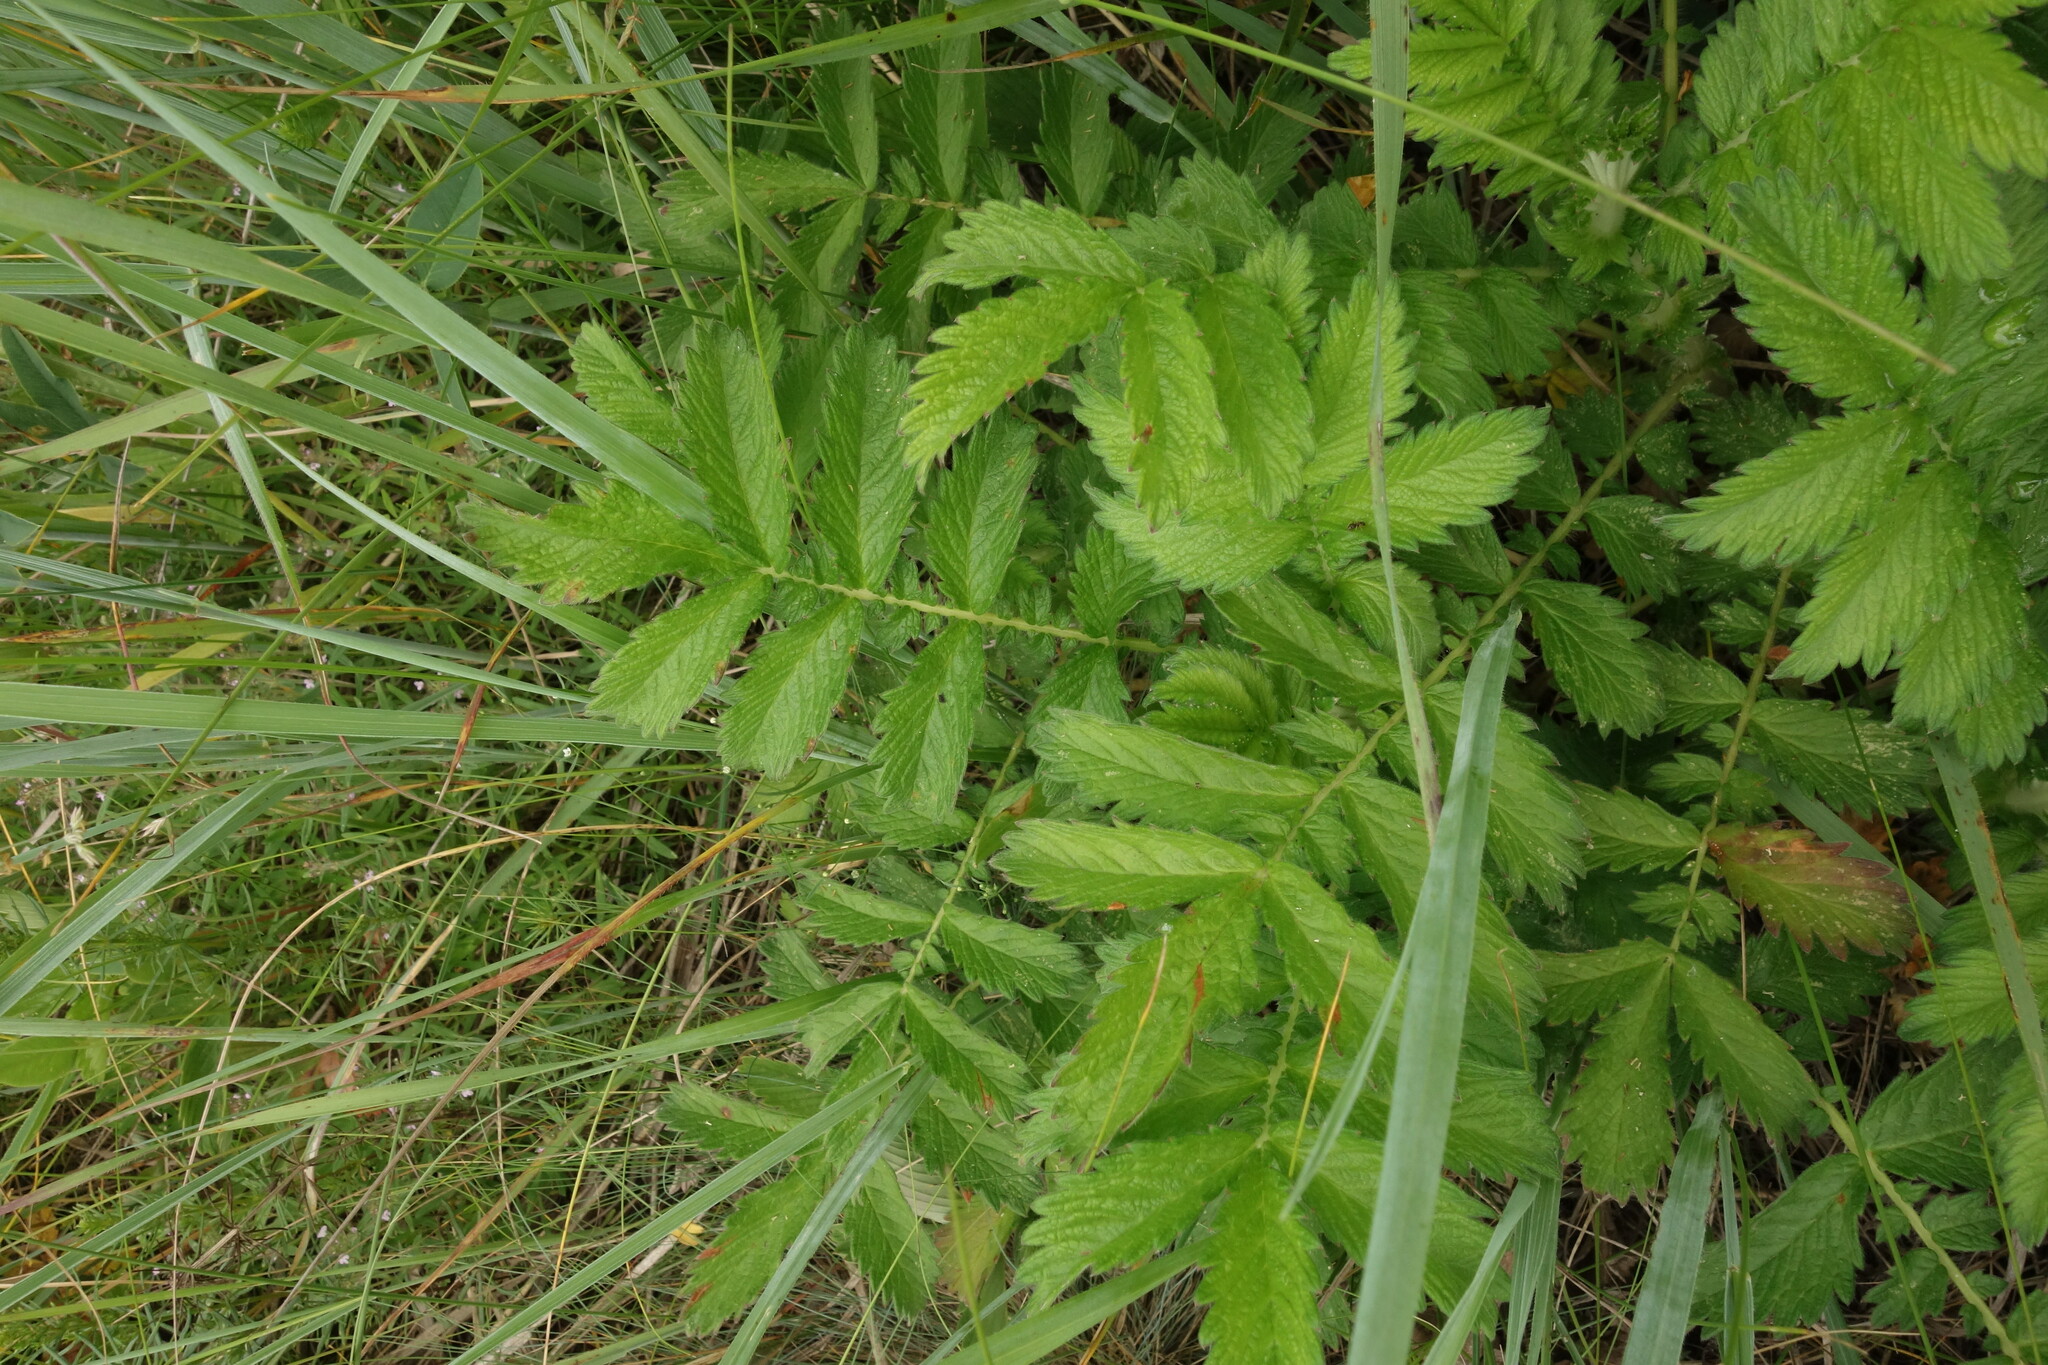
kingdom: Plantae
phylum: Tracheophyta
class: Magnoliopsida
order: Rosales
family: Rosaceae
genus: Agrimonia
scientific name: Agrimonia eupatoria
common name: Agrimony
